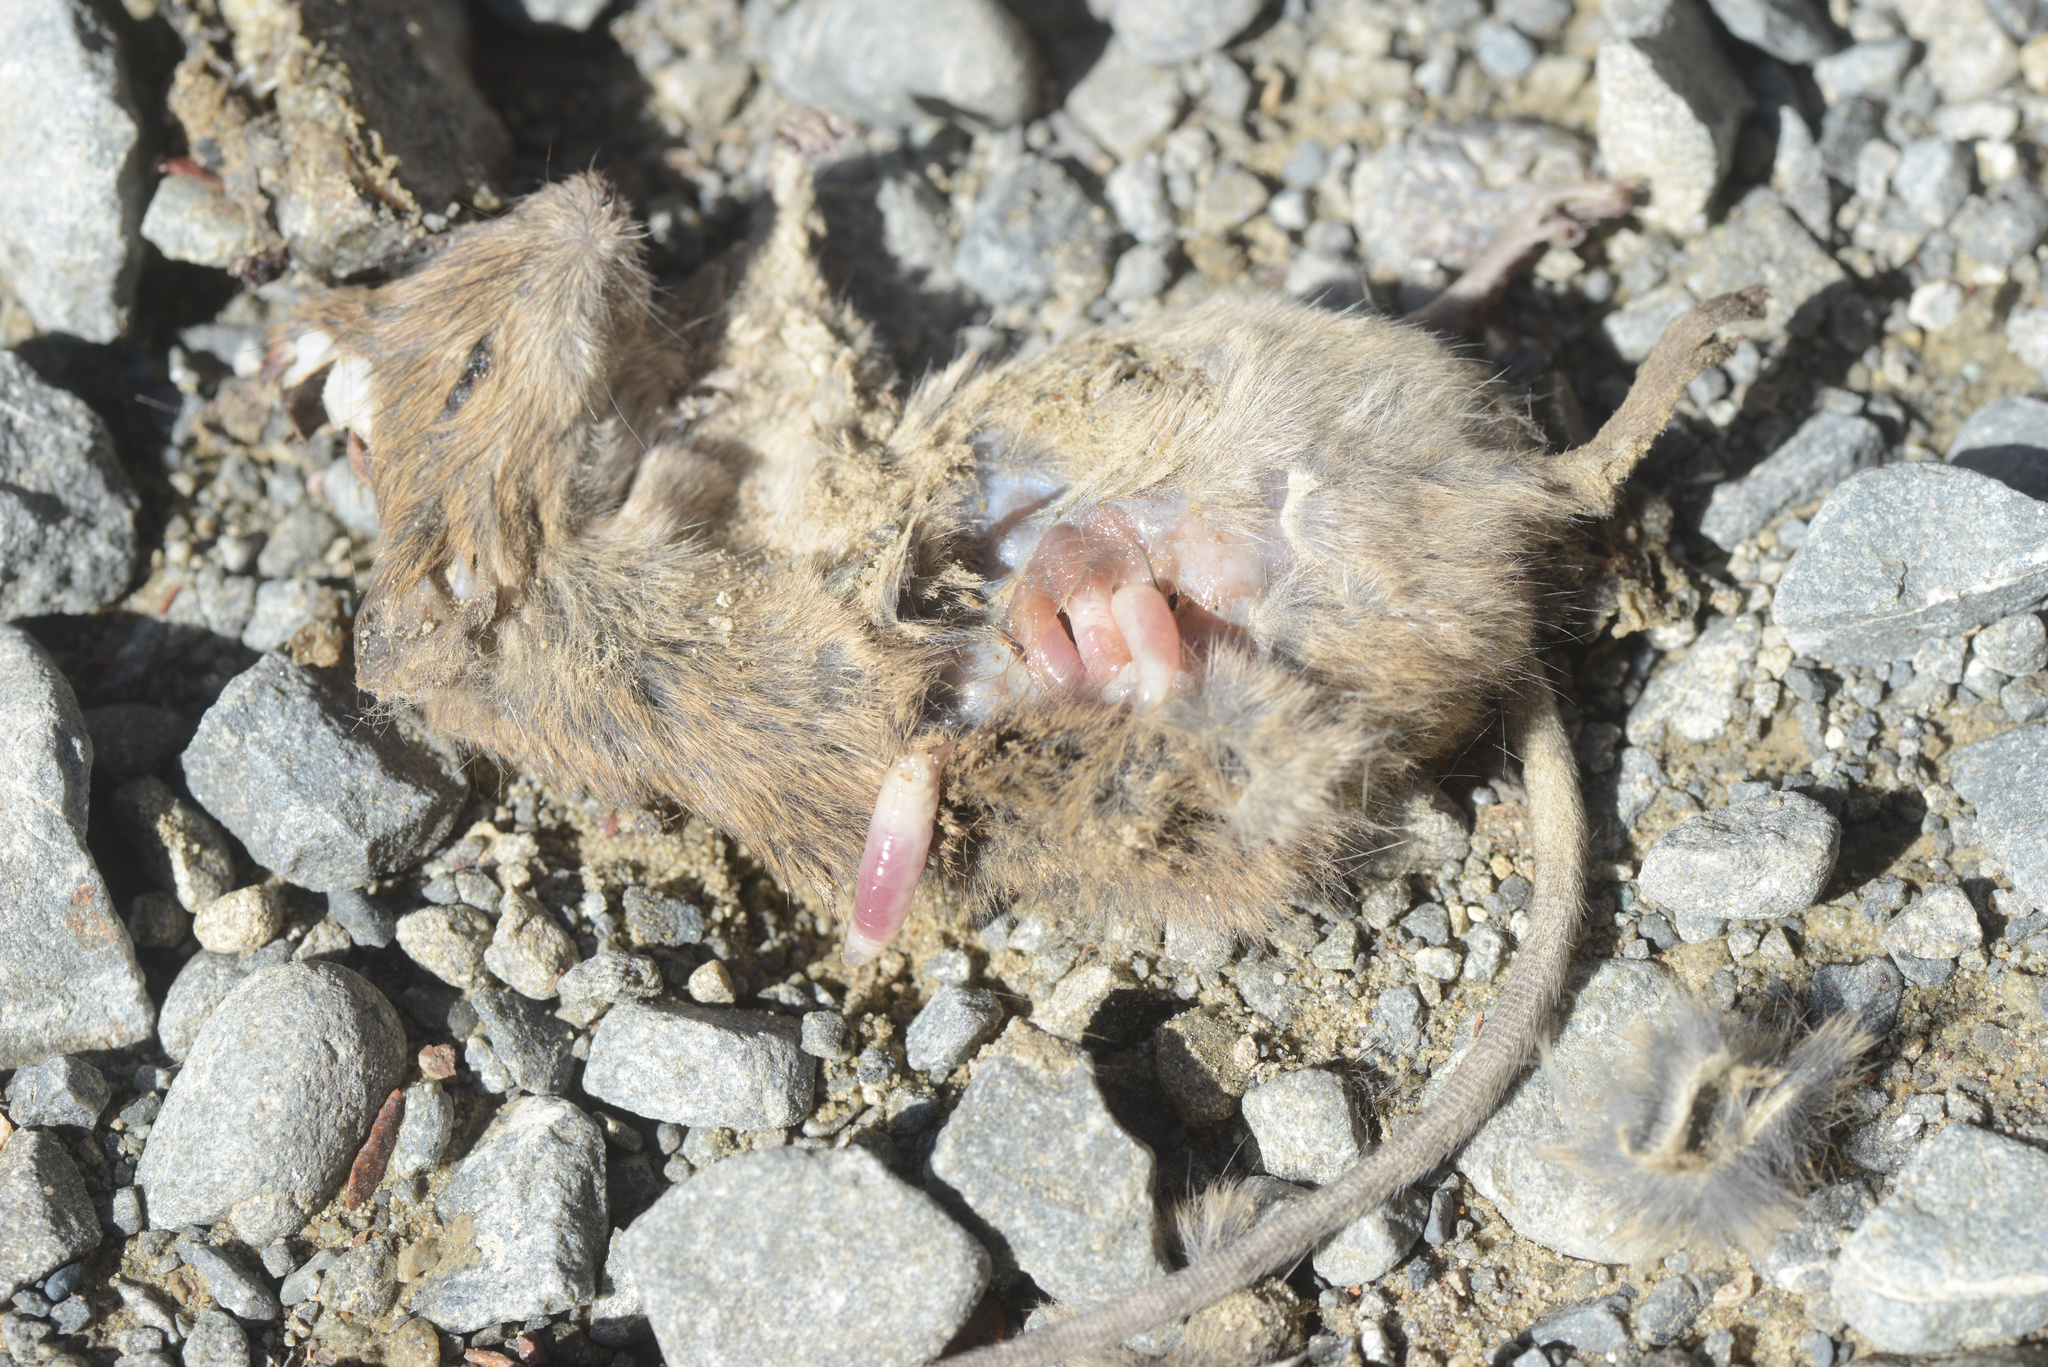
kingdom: Animalia
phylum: Arthropoda
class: Insecta
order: Diptera
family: Calliphoridae
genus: Calliphora
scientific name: Calliphora hilli
